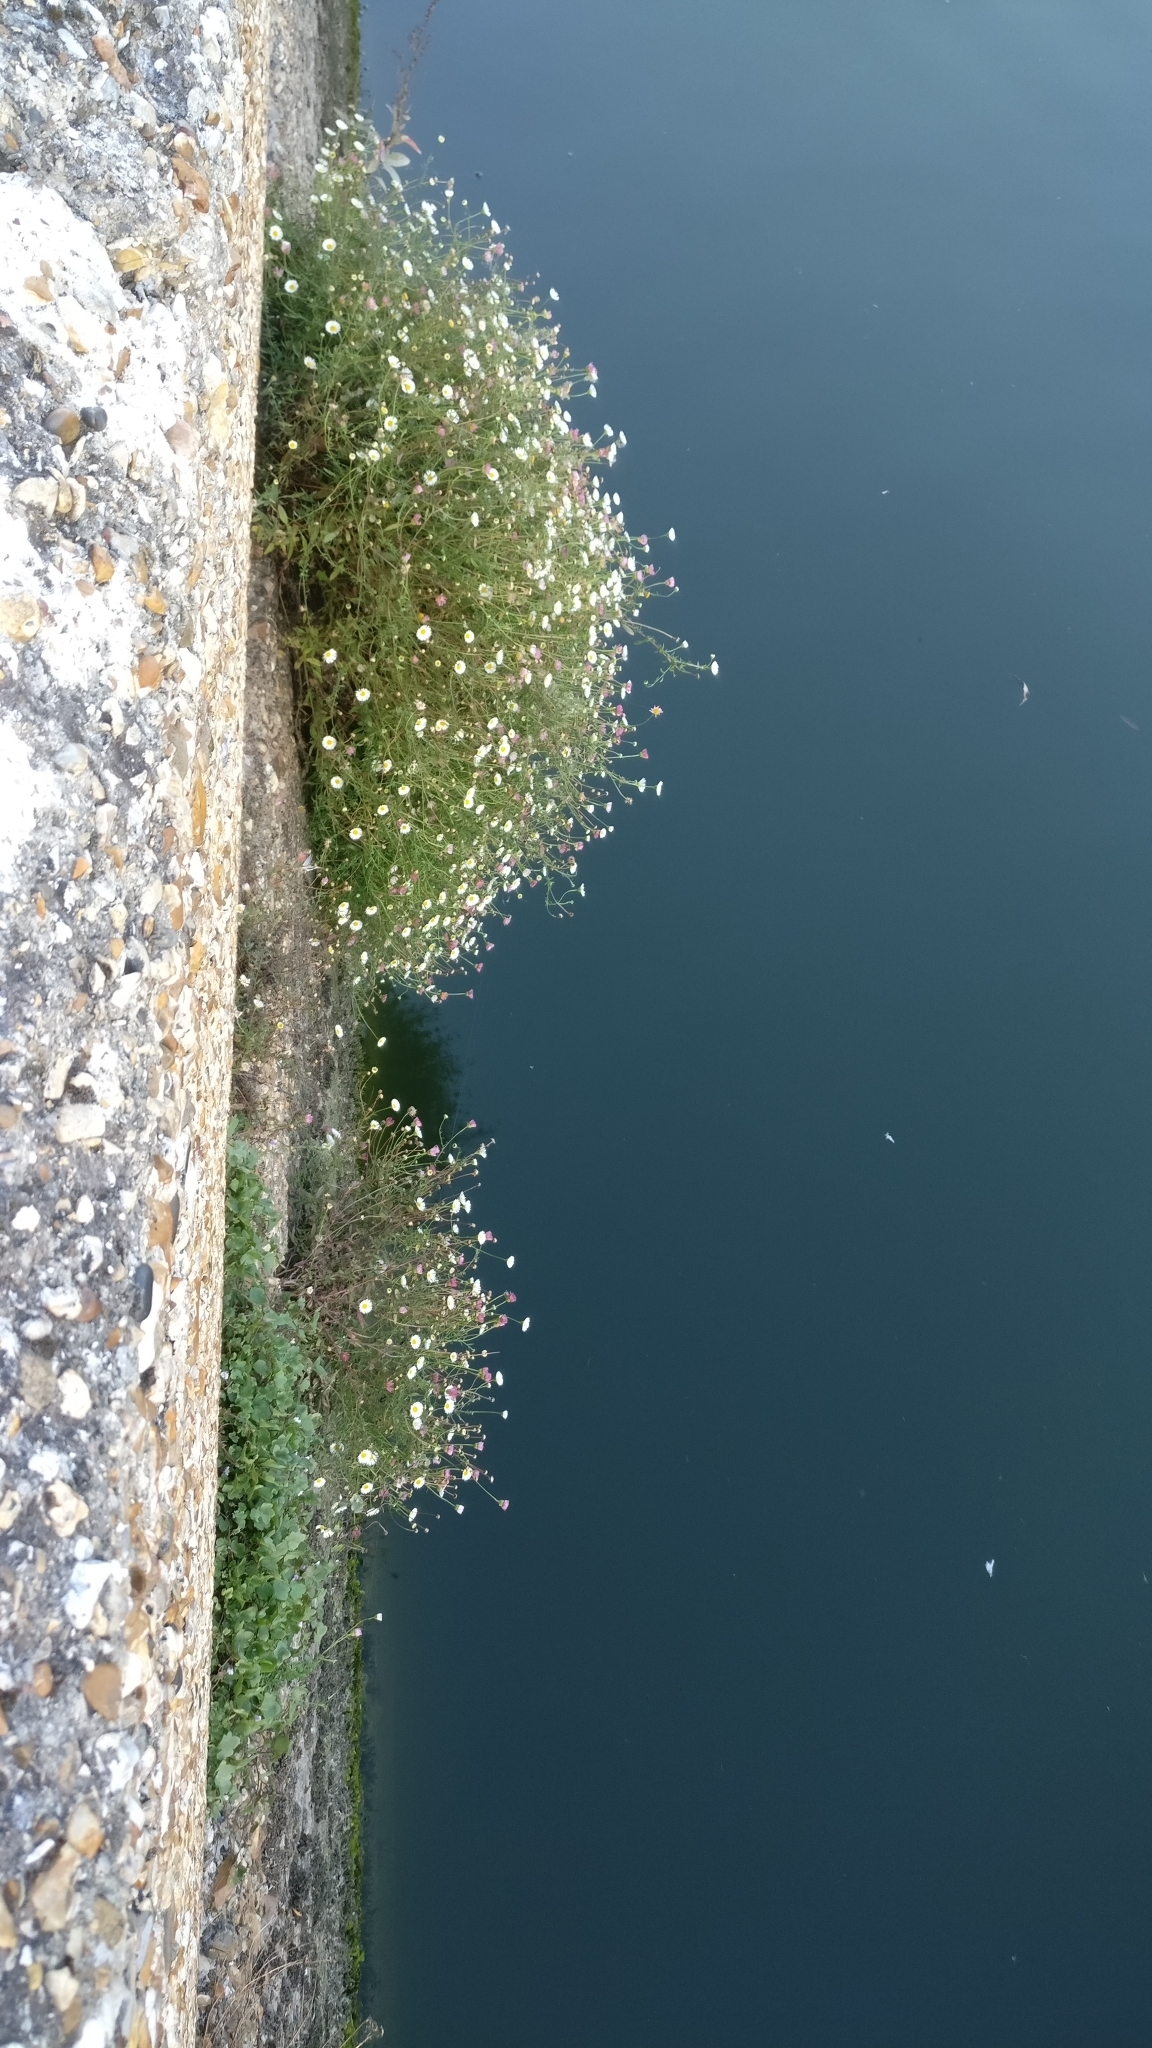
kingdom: Plantae
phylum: Tracheophyta
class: Magnoliopsida
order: Asterales
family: Asteraceae
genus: Erigeron
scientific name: Erigeron karvinskianus
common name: Mexican fleabane
